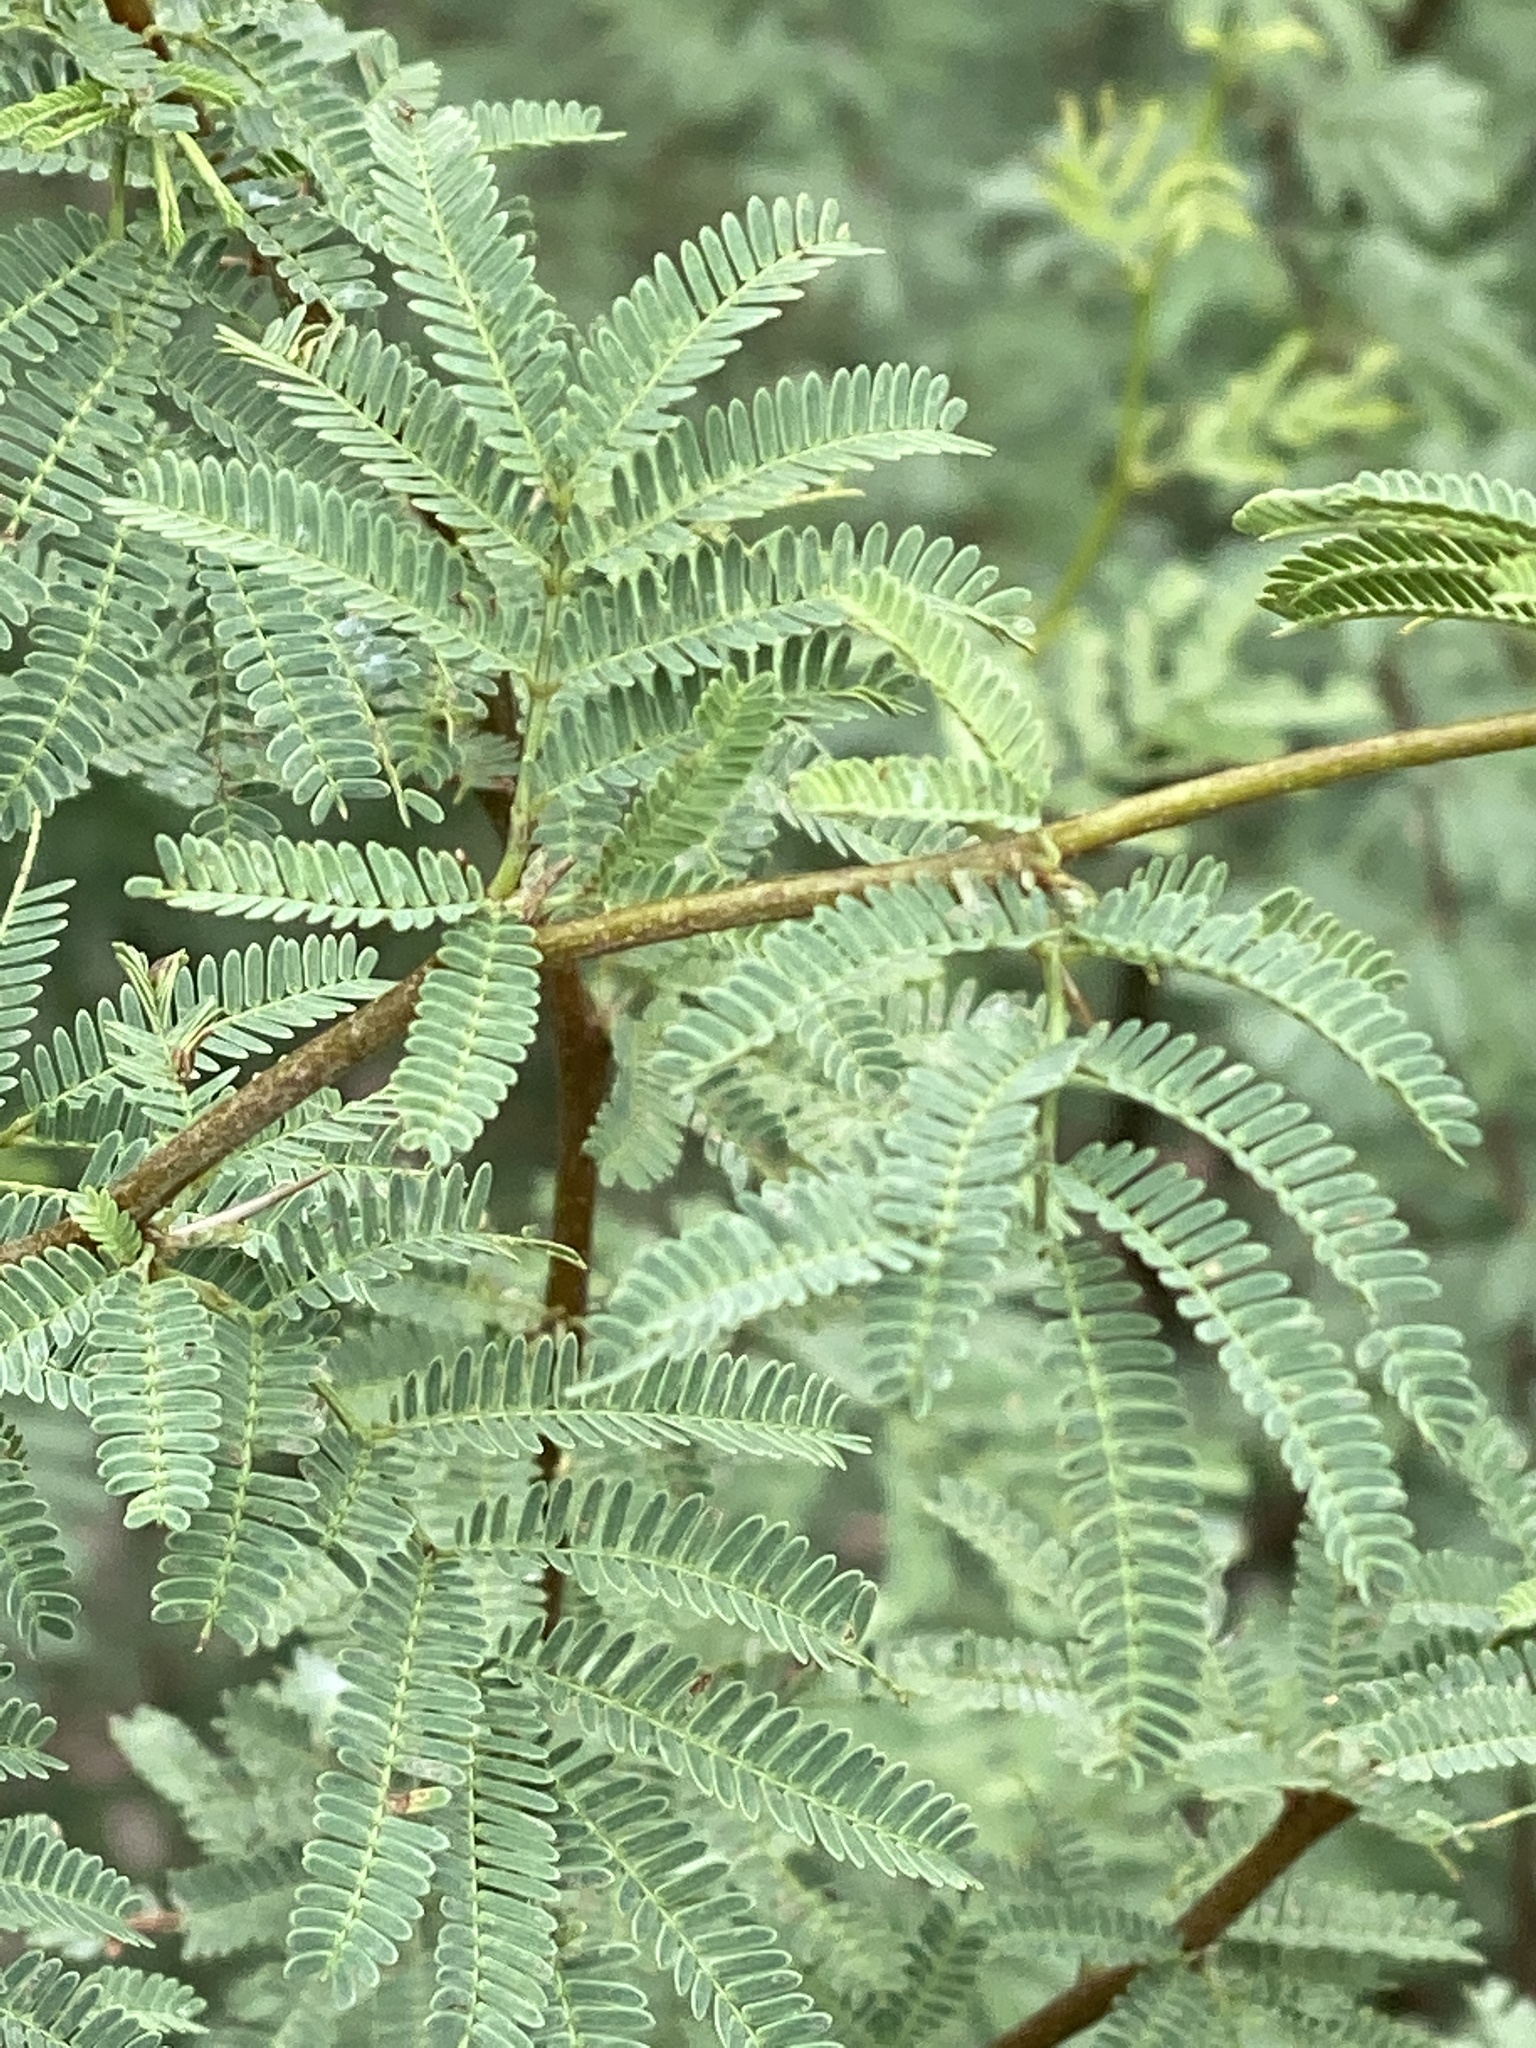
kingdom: Plantae
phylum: Tracheophyta
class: Magnoliopsida
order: Fabales
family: Fabaceae
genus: Vachellia
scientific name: Vachellia farnesiana
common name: Sweet acacia
